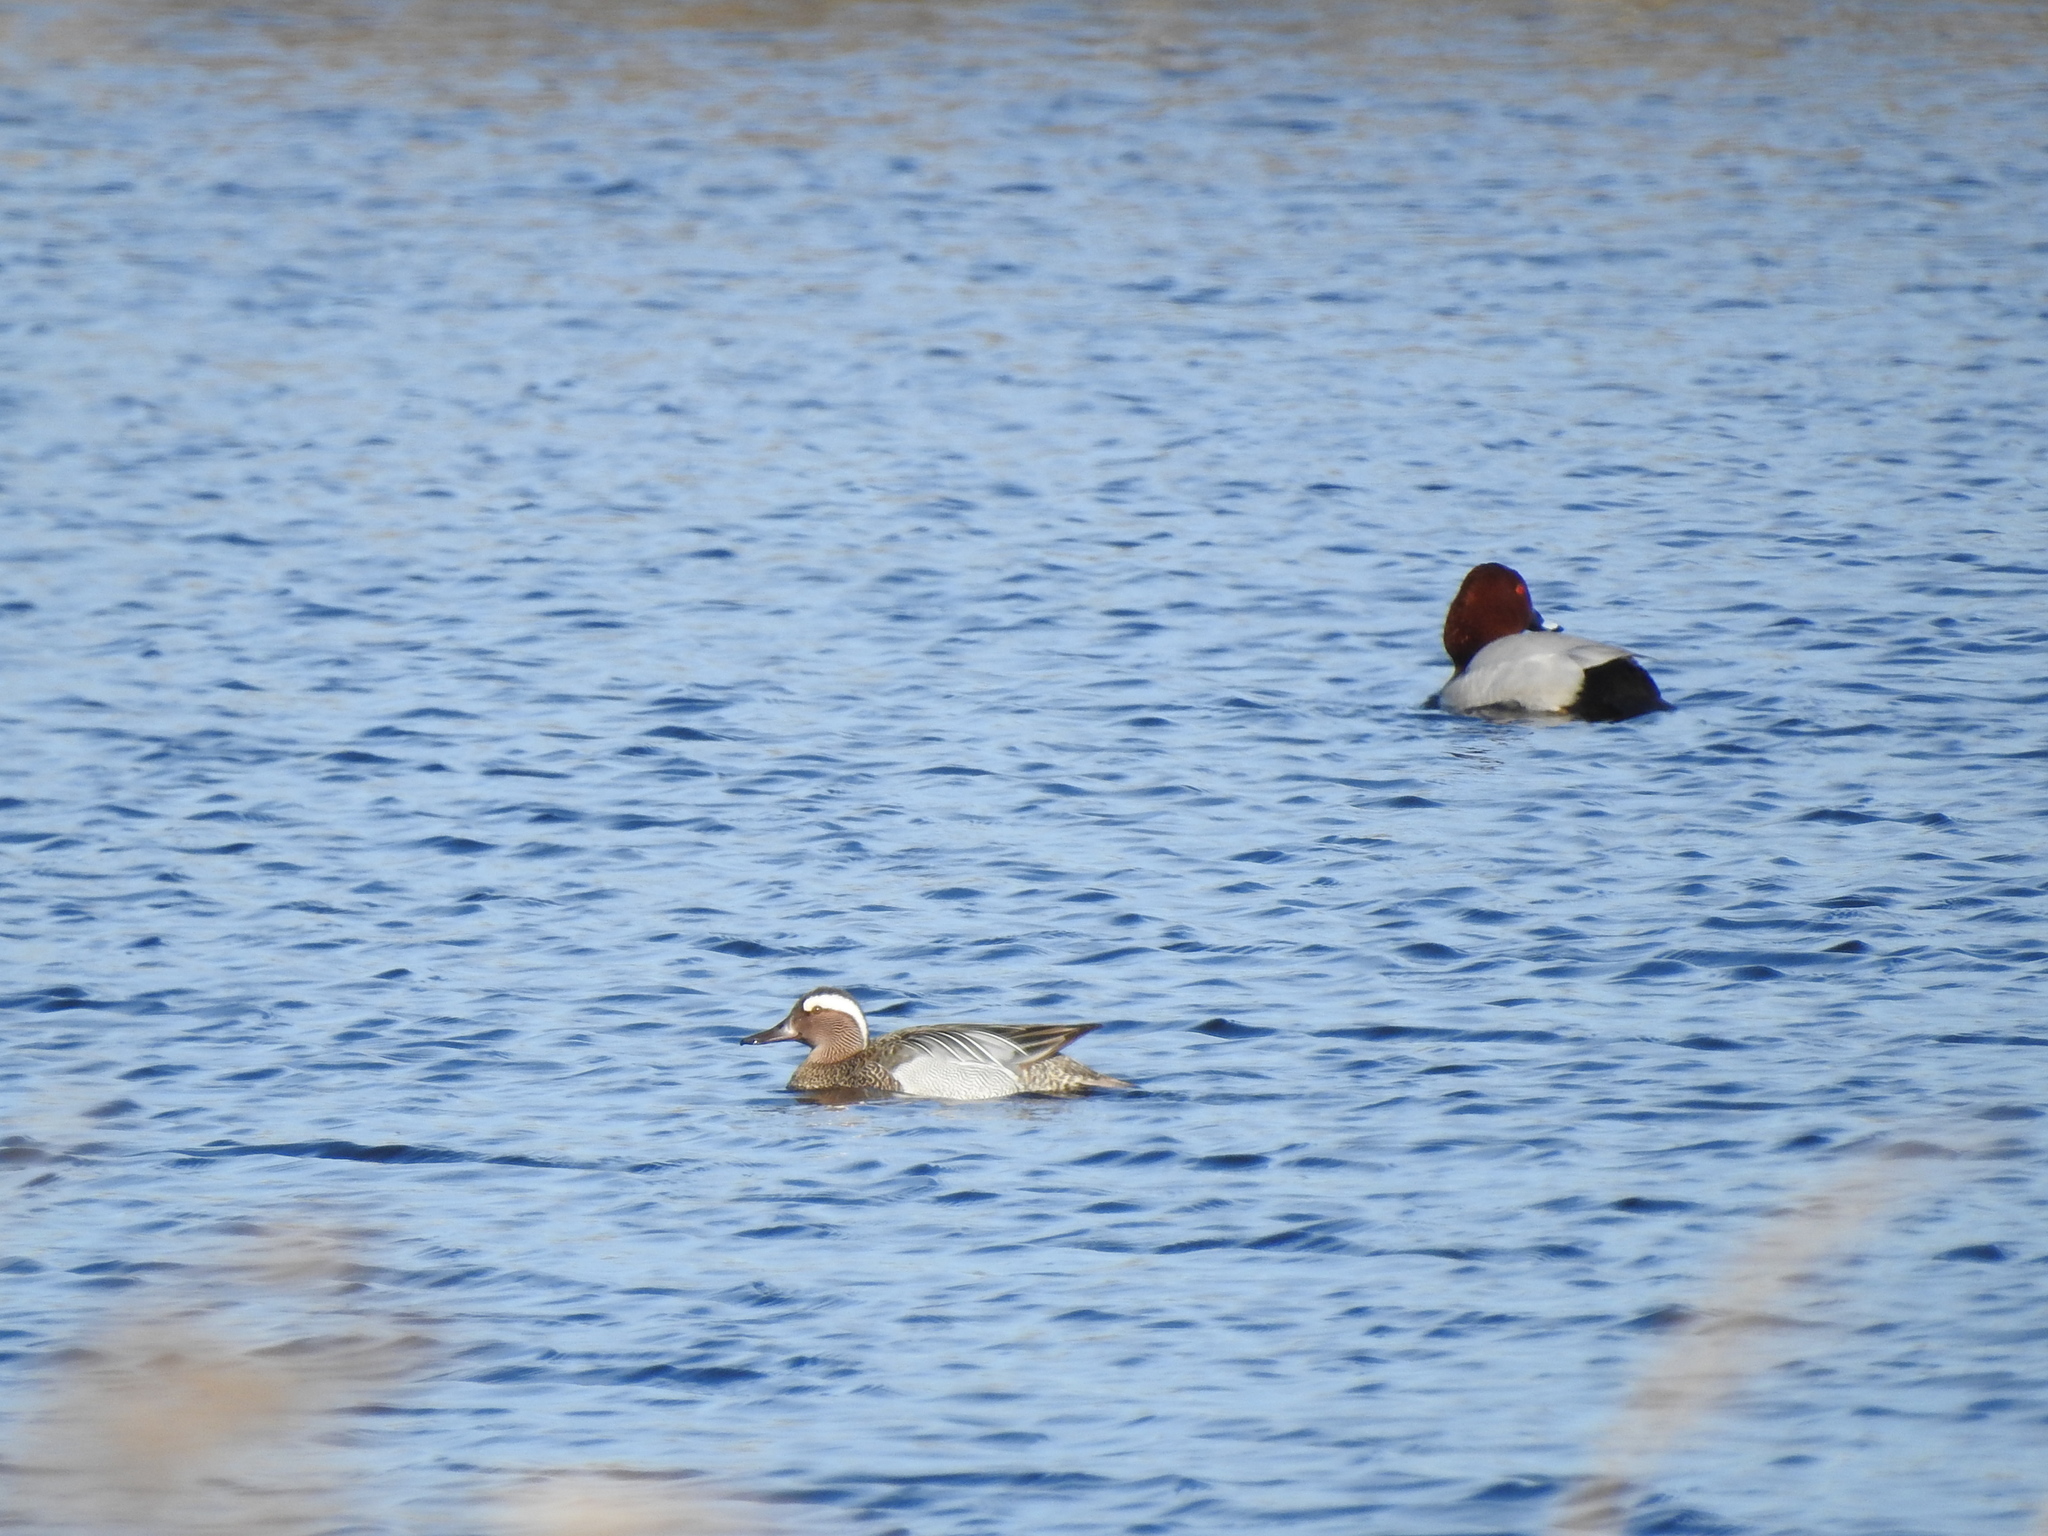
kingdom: Animalia
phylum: Chordata
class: Aves
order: Anseriformes
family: Anatidae
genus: Spatula
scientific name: Spatula querquedula
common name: Garganey
